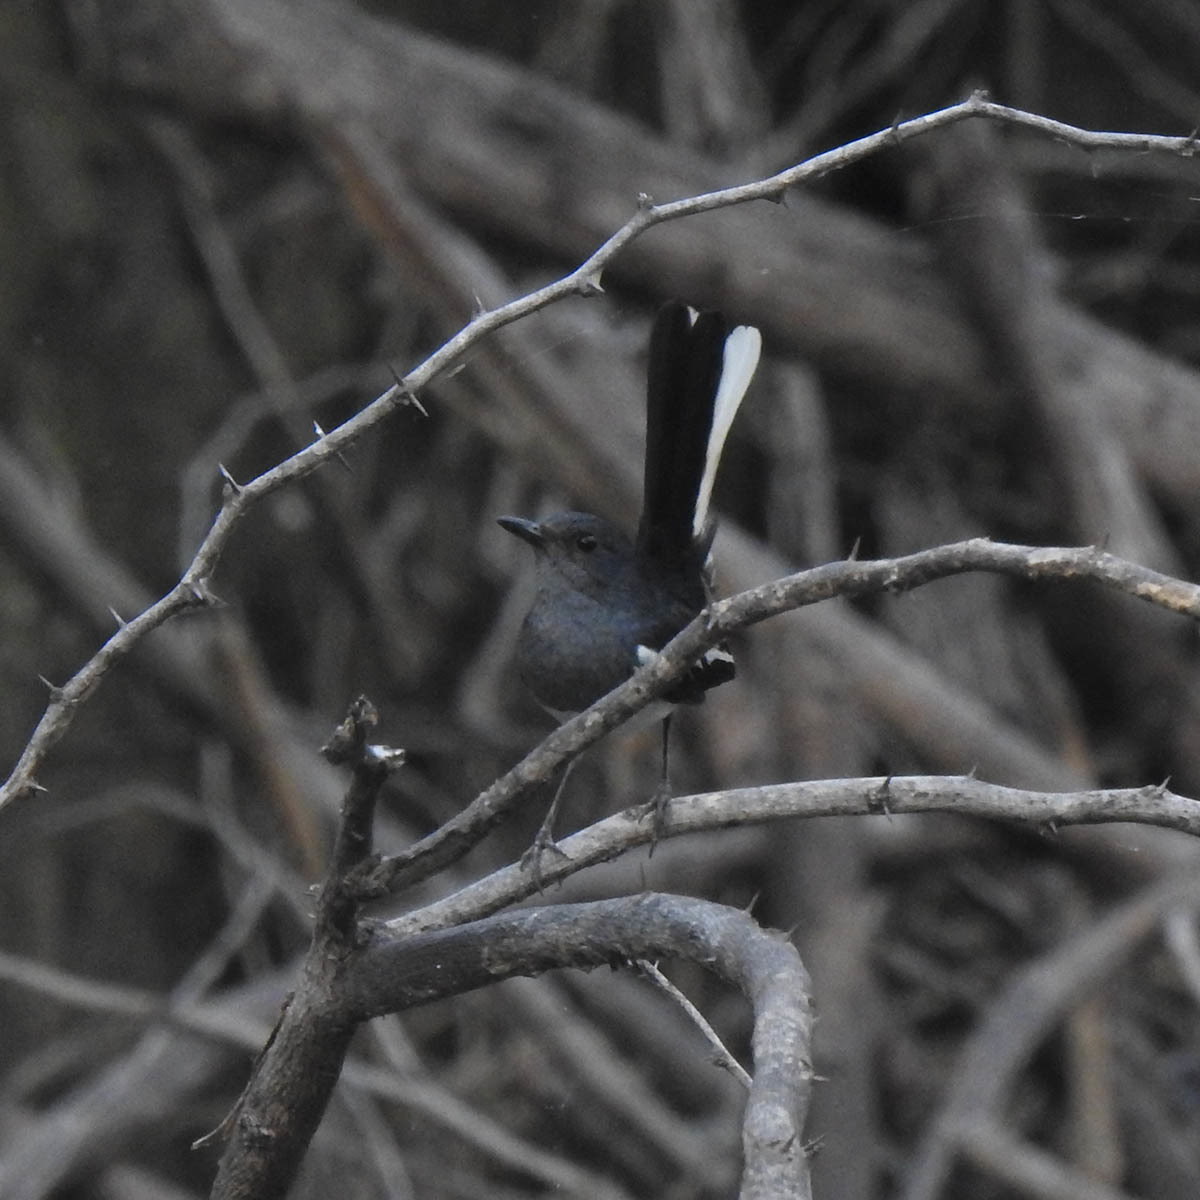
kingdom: Animalia
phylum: Chordata
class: Aves
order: Passeriformes
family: Muscicapidae
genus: Copsychus
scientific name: Copsychus saularis
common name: Oriental magpie-robin
